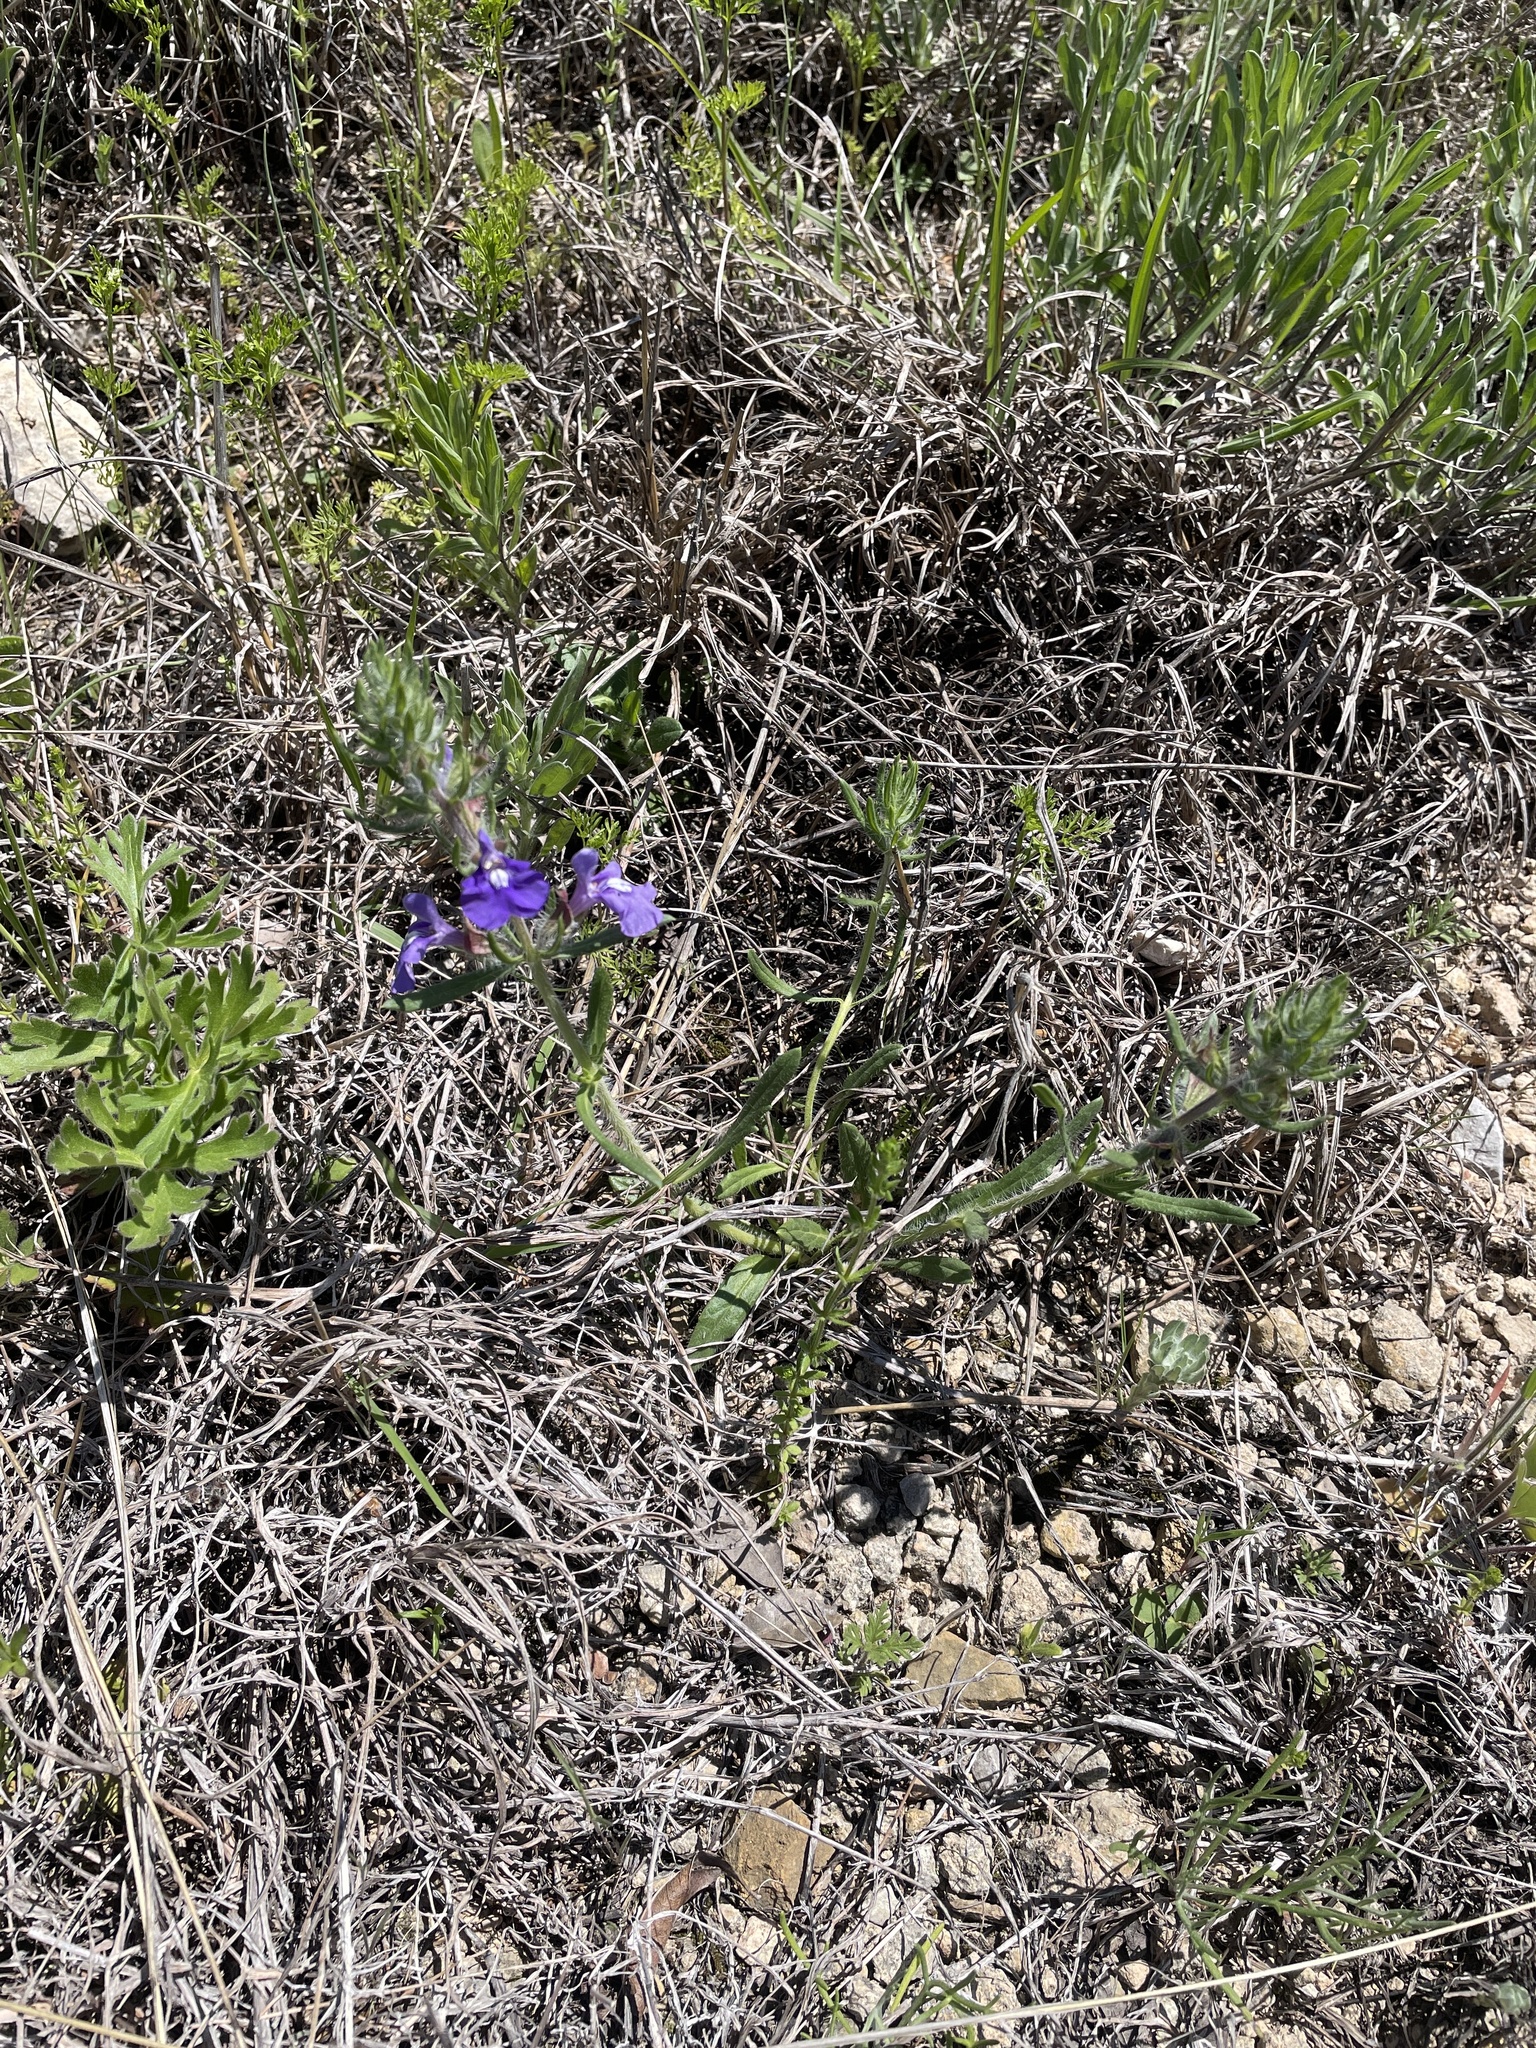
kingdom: Plantae
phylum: Tracheophyta
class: Magnoliopsida
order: Lamiales
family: Lamiaceae
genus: Salvia
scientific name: Salvia texana
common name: Texas sage
